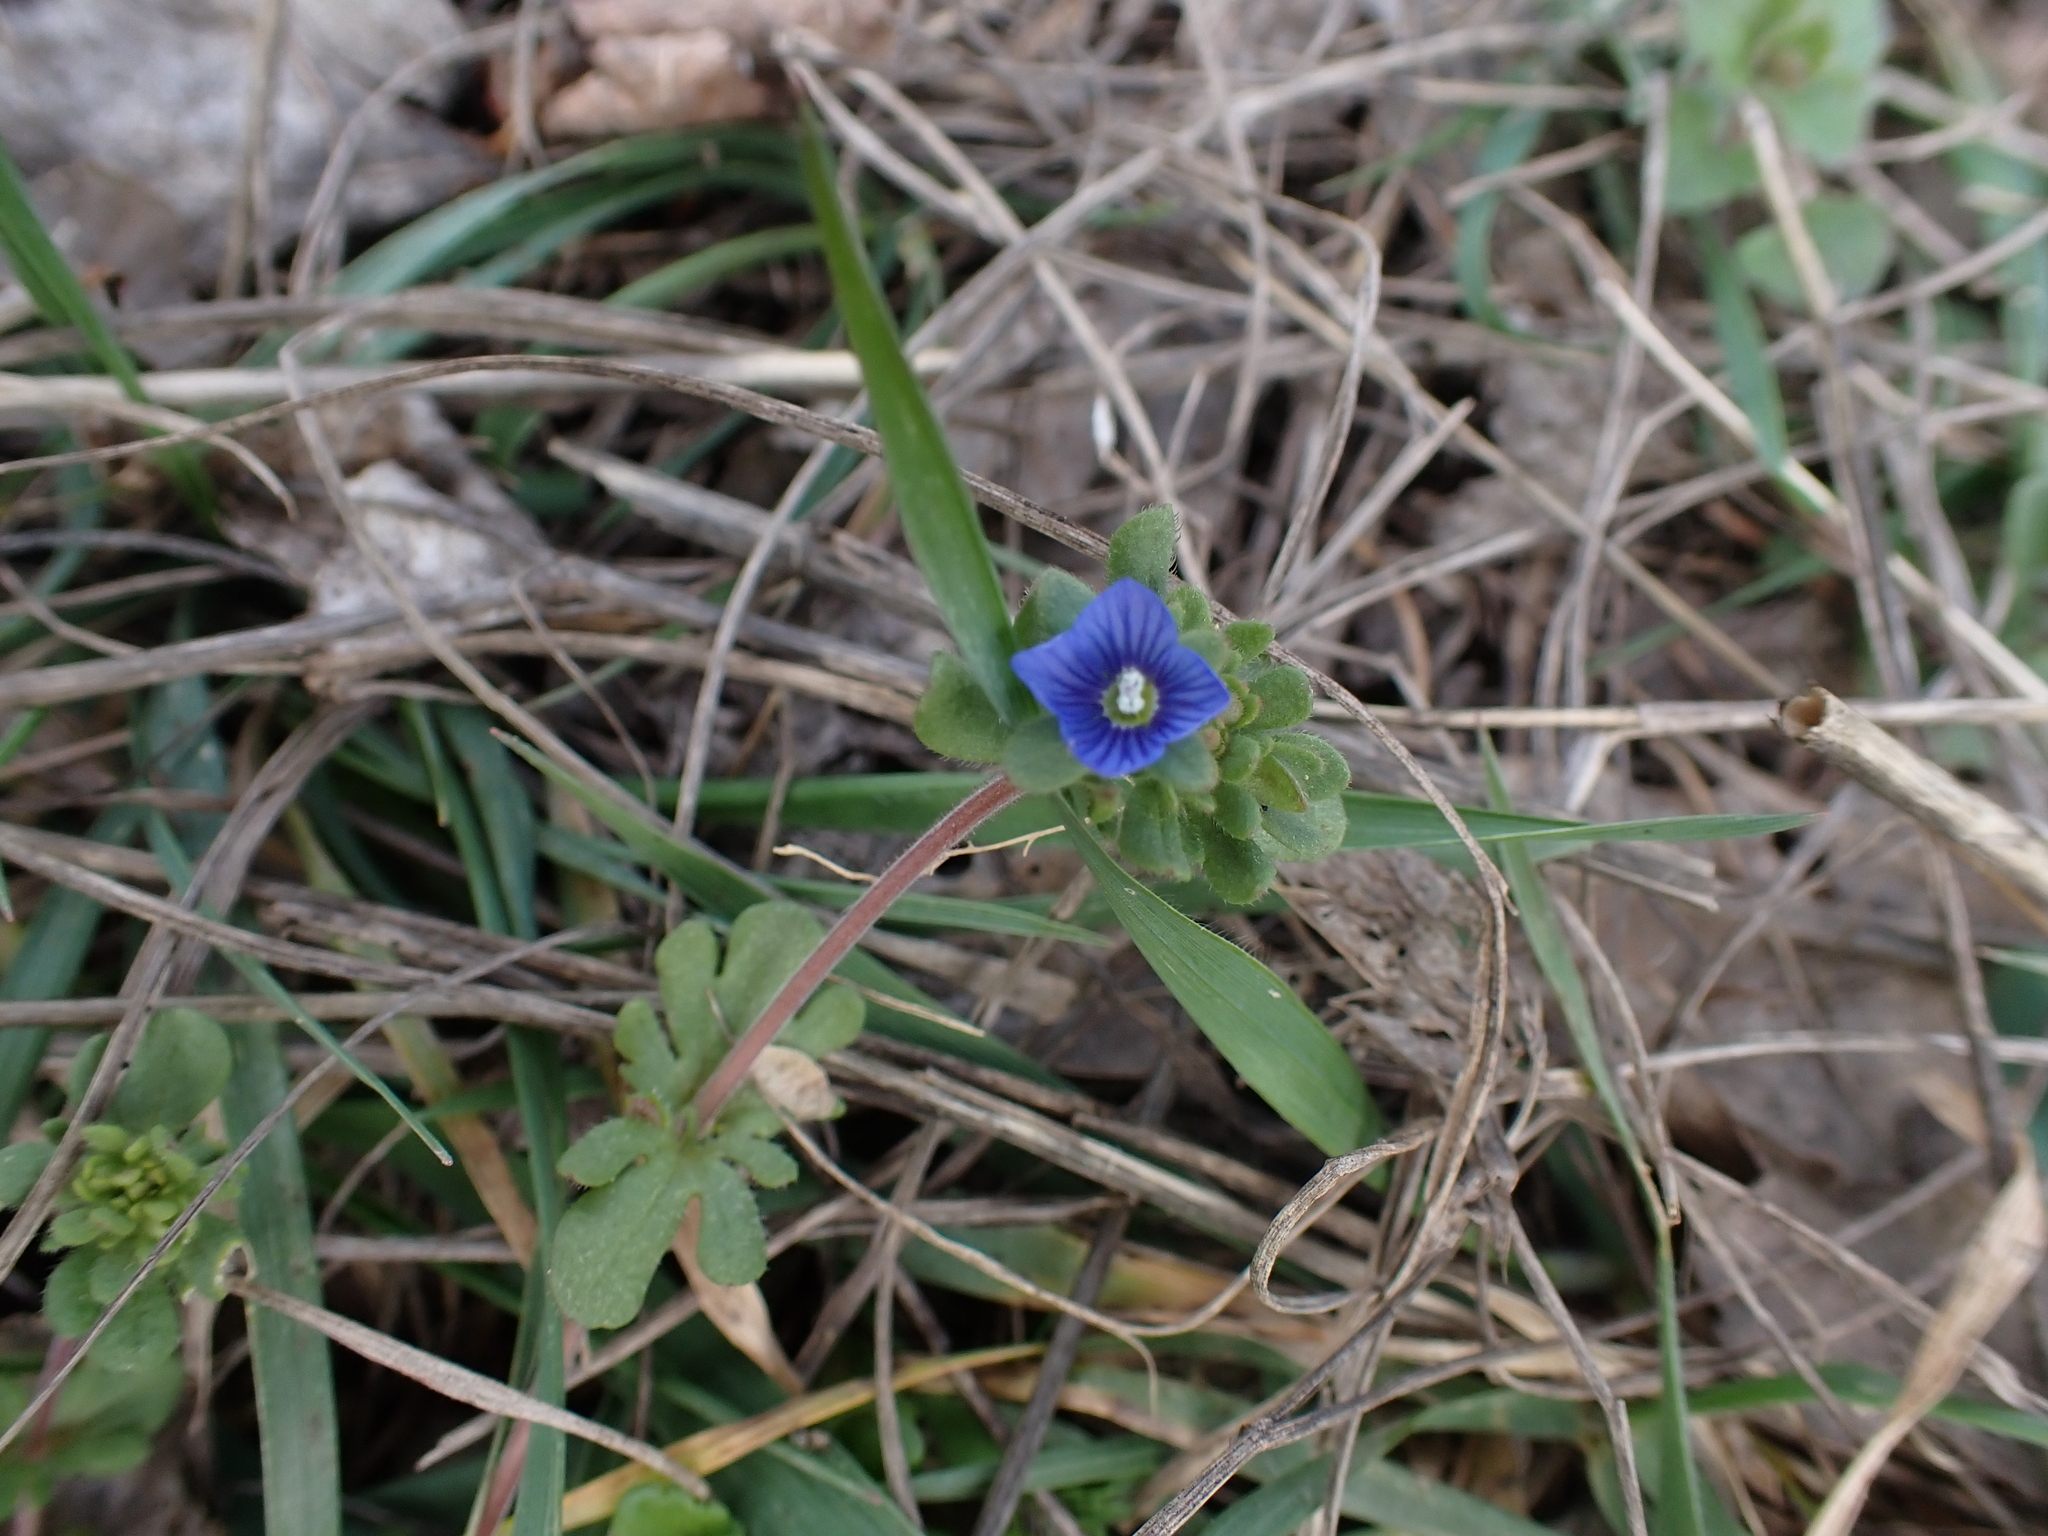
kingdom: Plantae
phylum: Tracheophyta
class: Magnoliopsida
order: Lamiales
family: Plantaginaceae
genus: Veronica
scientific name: Veronica triphyllos
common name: Fingered speedwell
